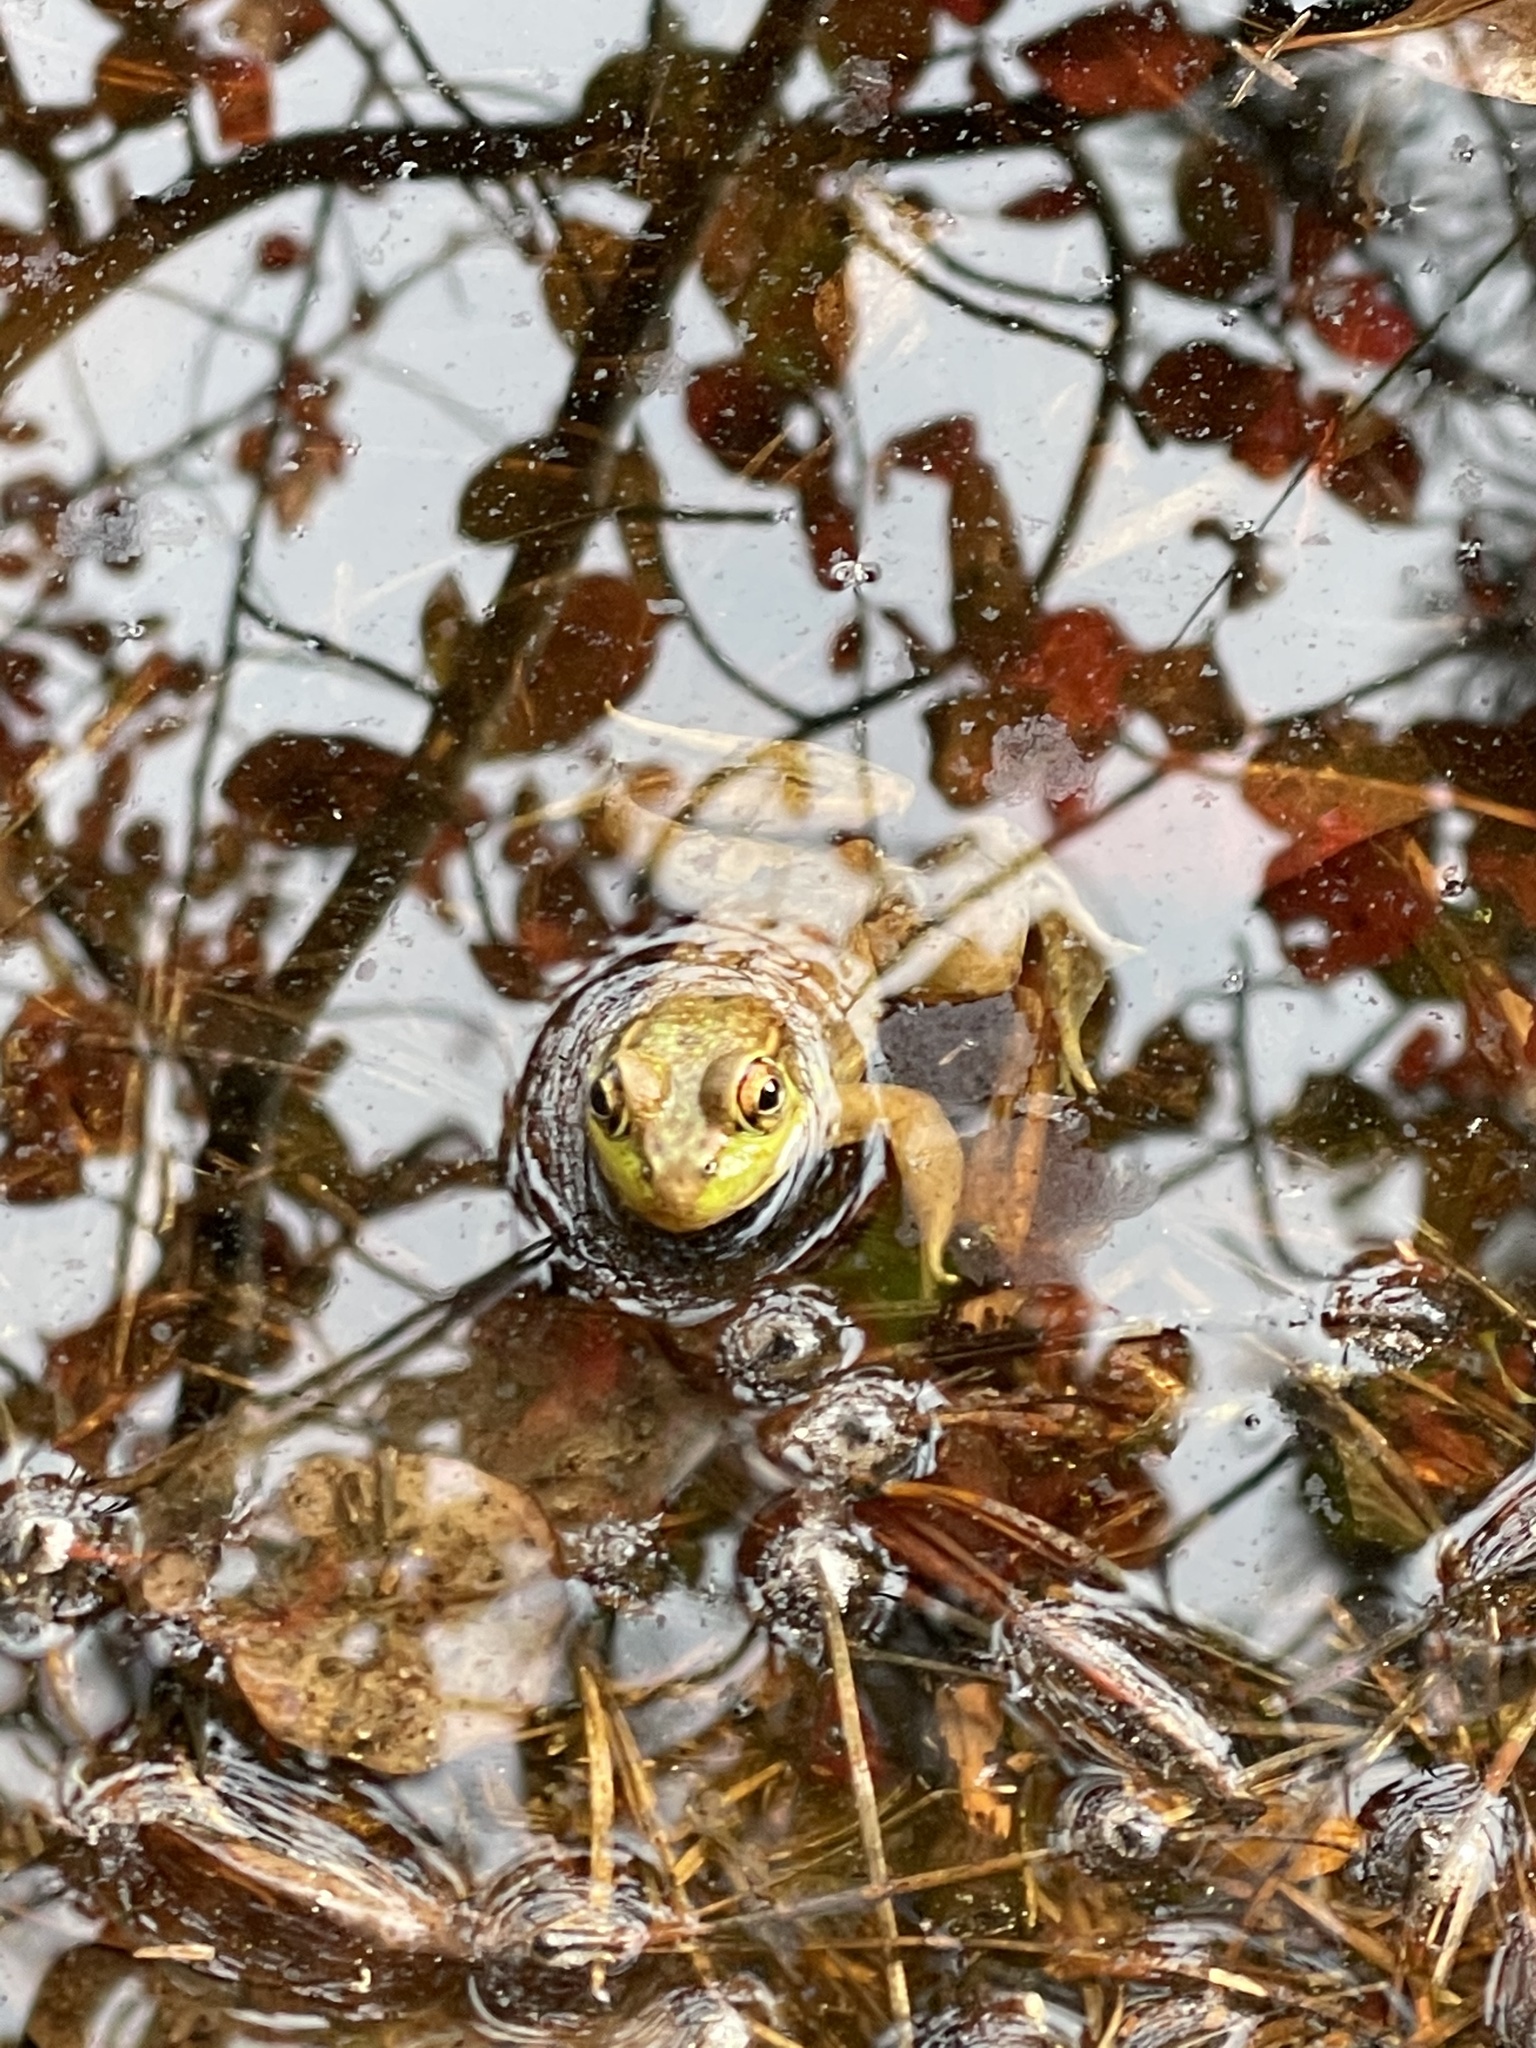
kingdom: Animalia
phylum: Chordata
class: Amphibia
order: Anura
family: Ranidae
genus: Lithobates
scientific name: Lithobates clamitans
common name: Green frog
